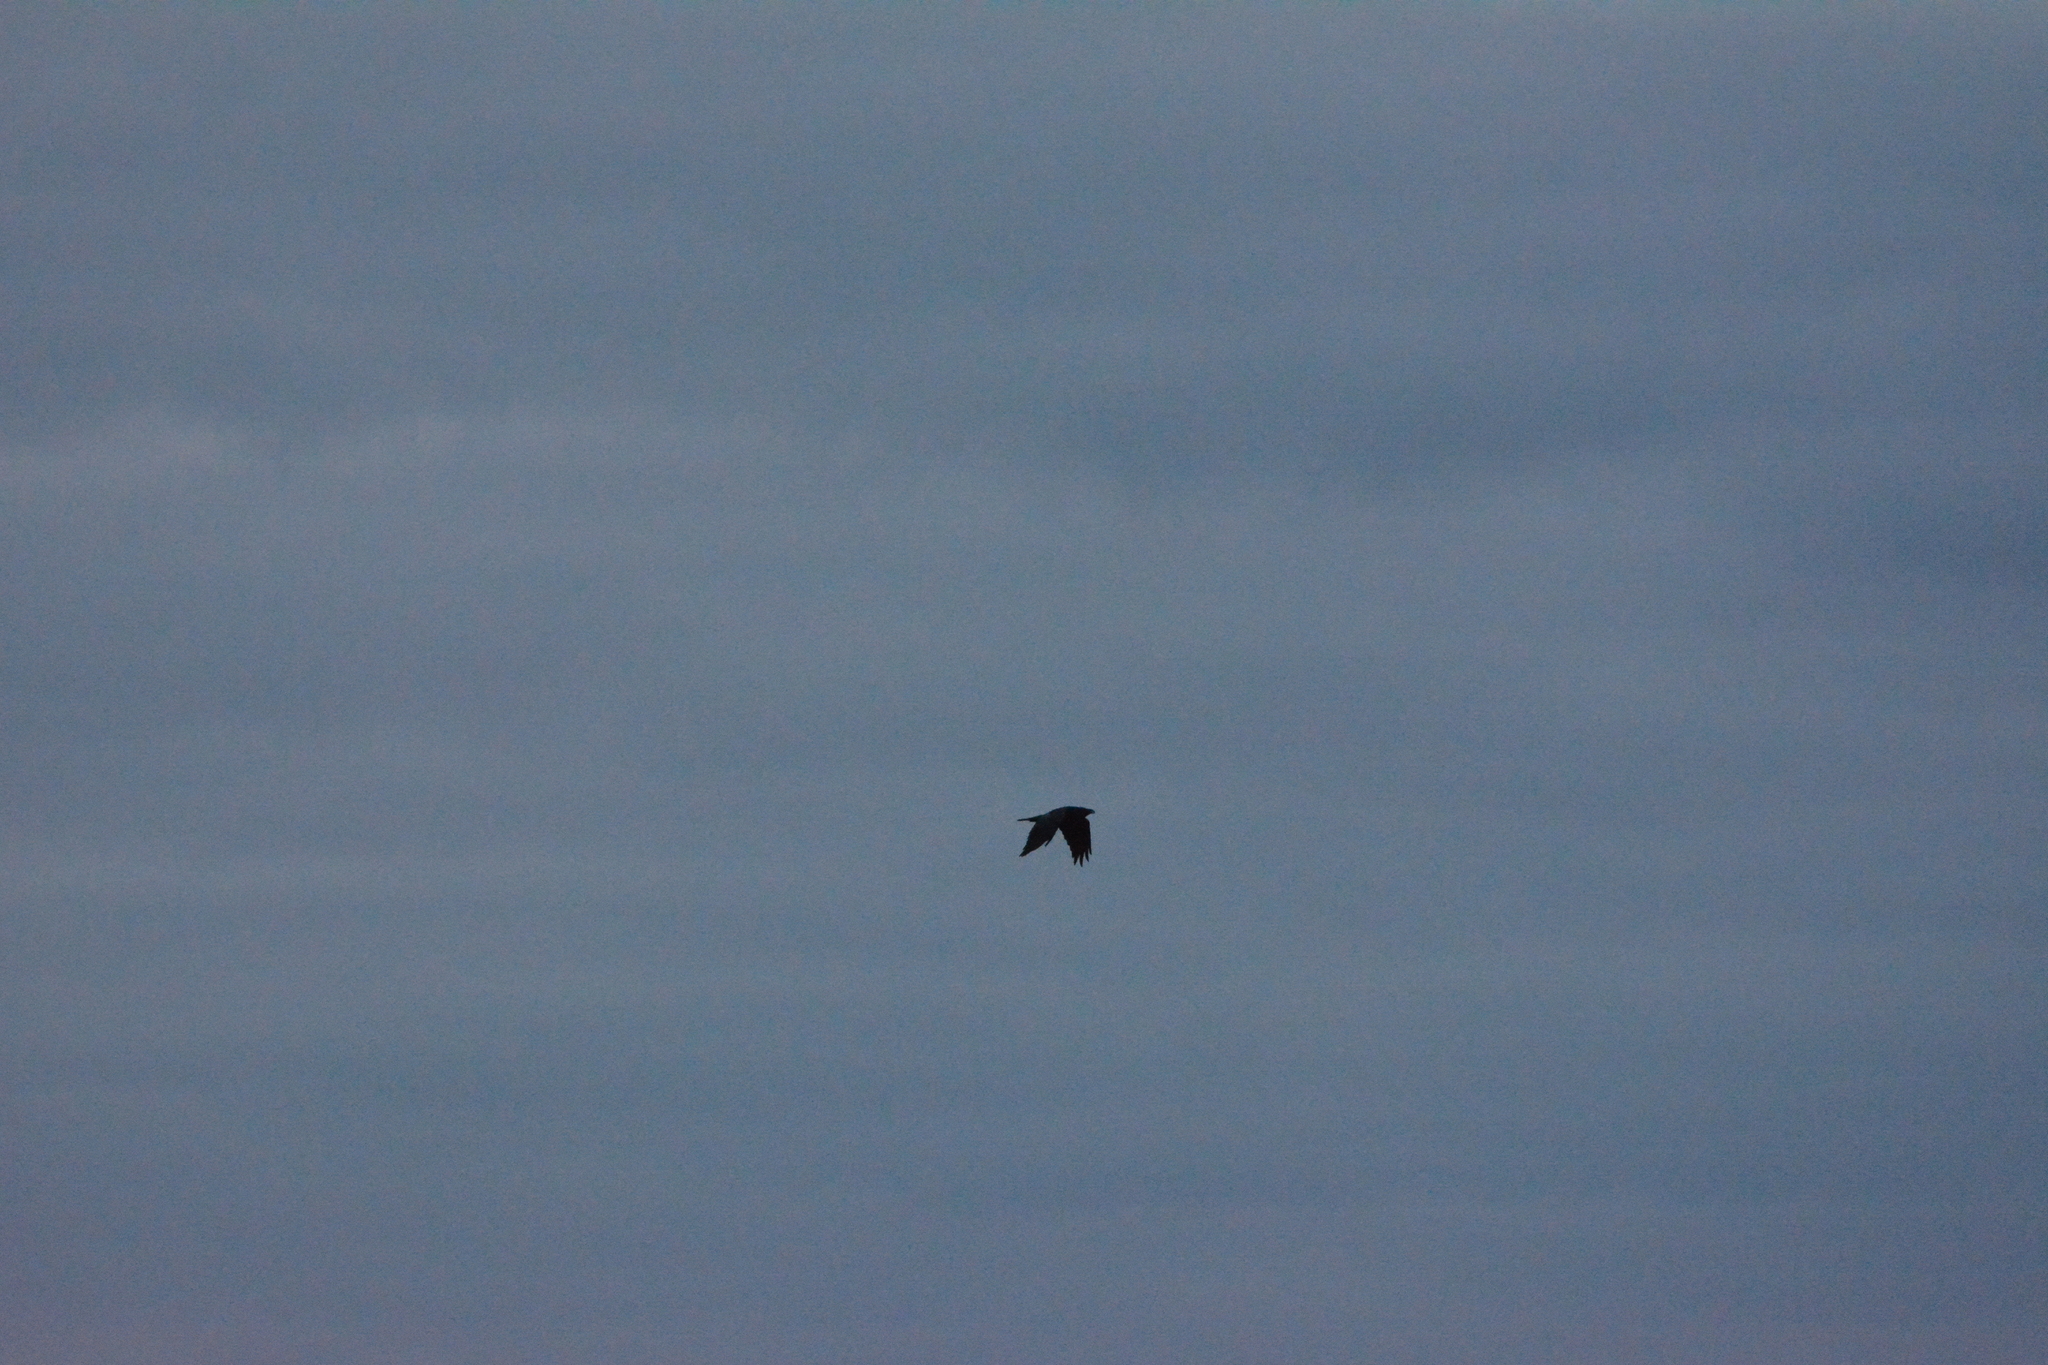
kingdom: Animalia
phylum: Chordata
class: Aves
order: Passeriformes
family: Corvidae
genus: Corvus
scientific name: Corvus corax
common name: Common raven
